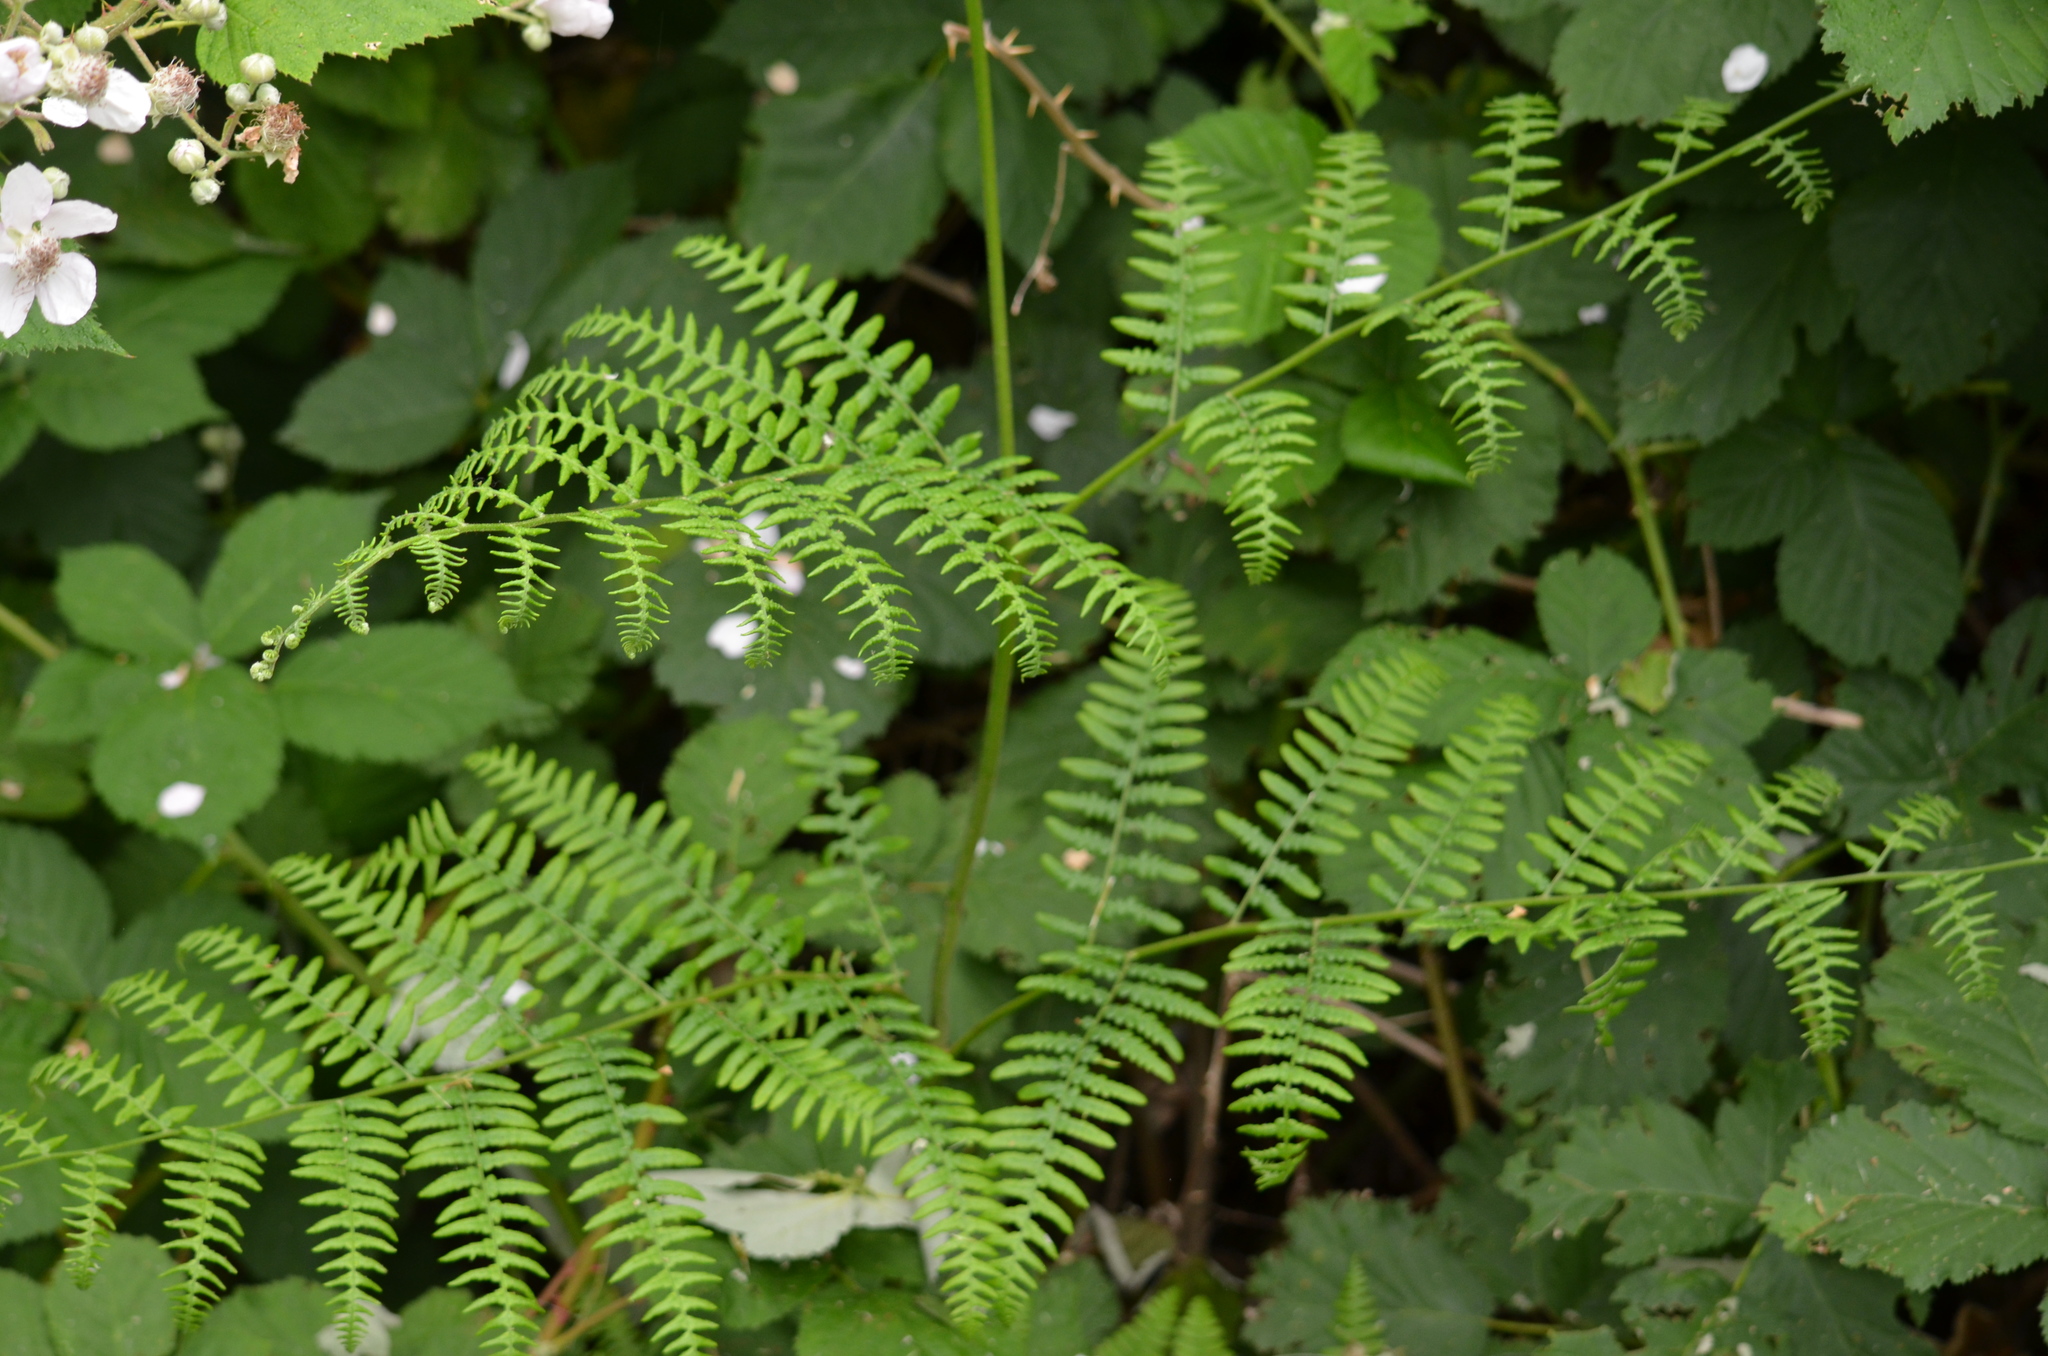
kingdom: Plantae
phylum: Tracheophyta
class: Polypodiopsida
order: Polypodiales
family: Dennstaedtiaceae
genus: Pteridium
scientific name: Pteridium aquilinum
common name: Bracken
